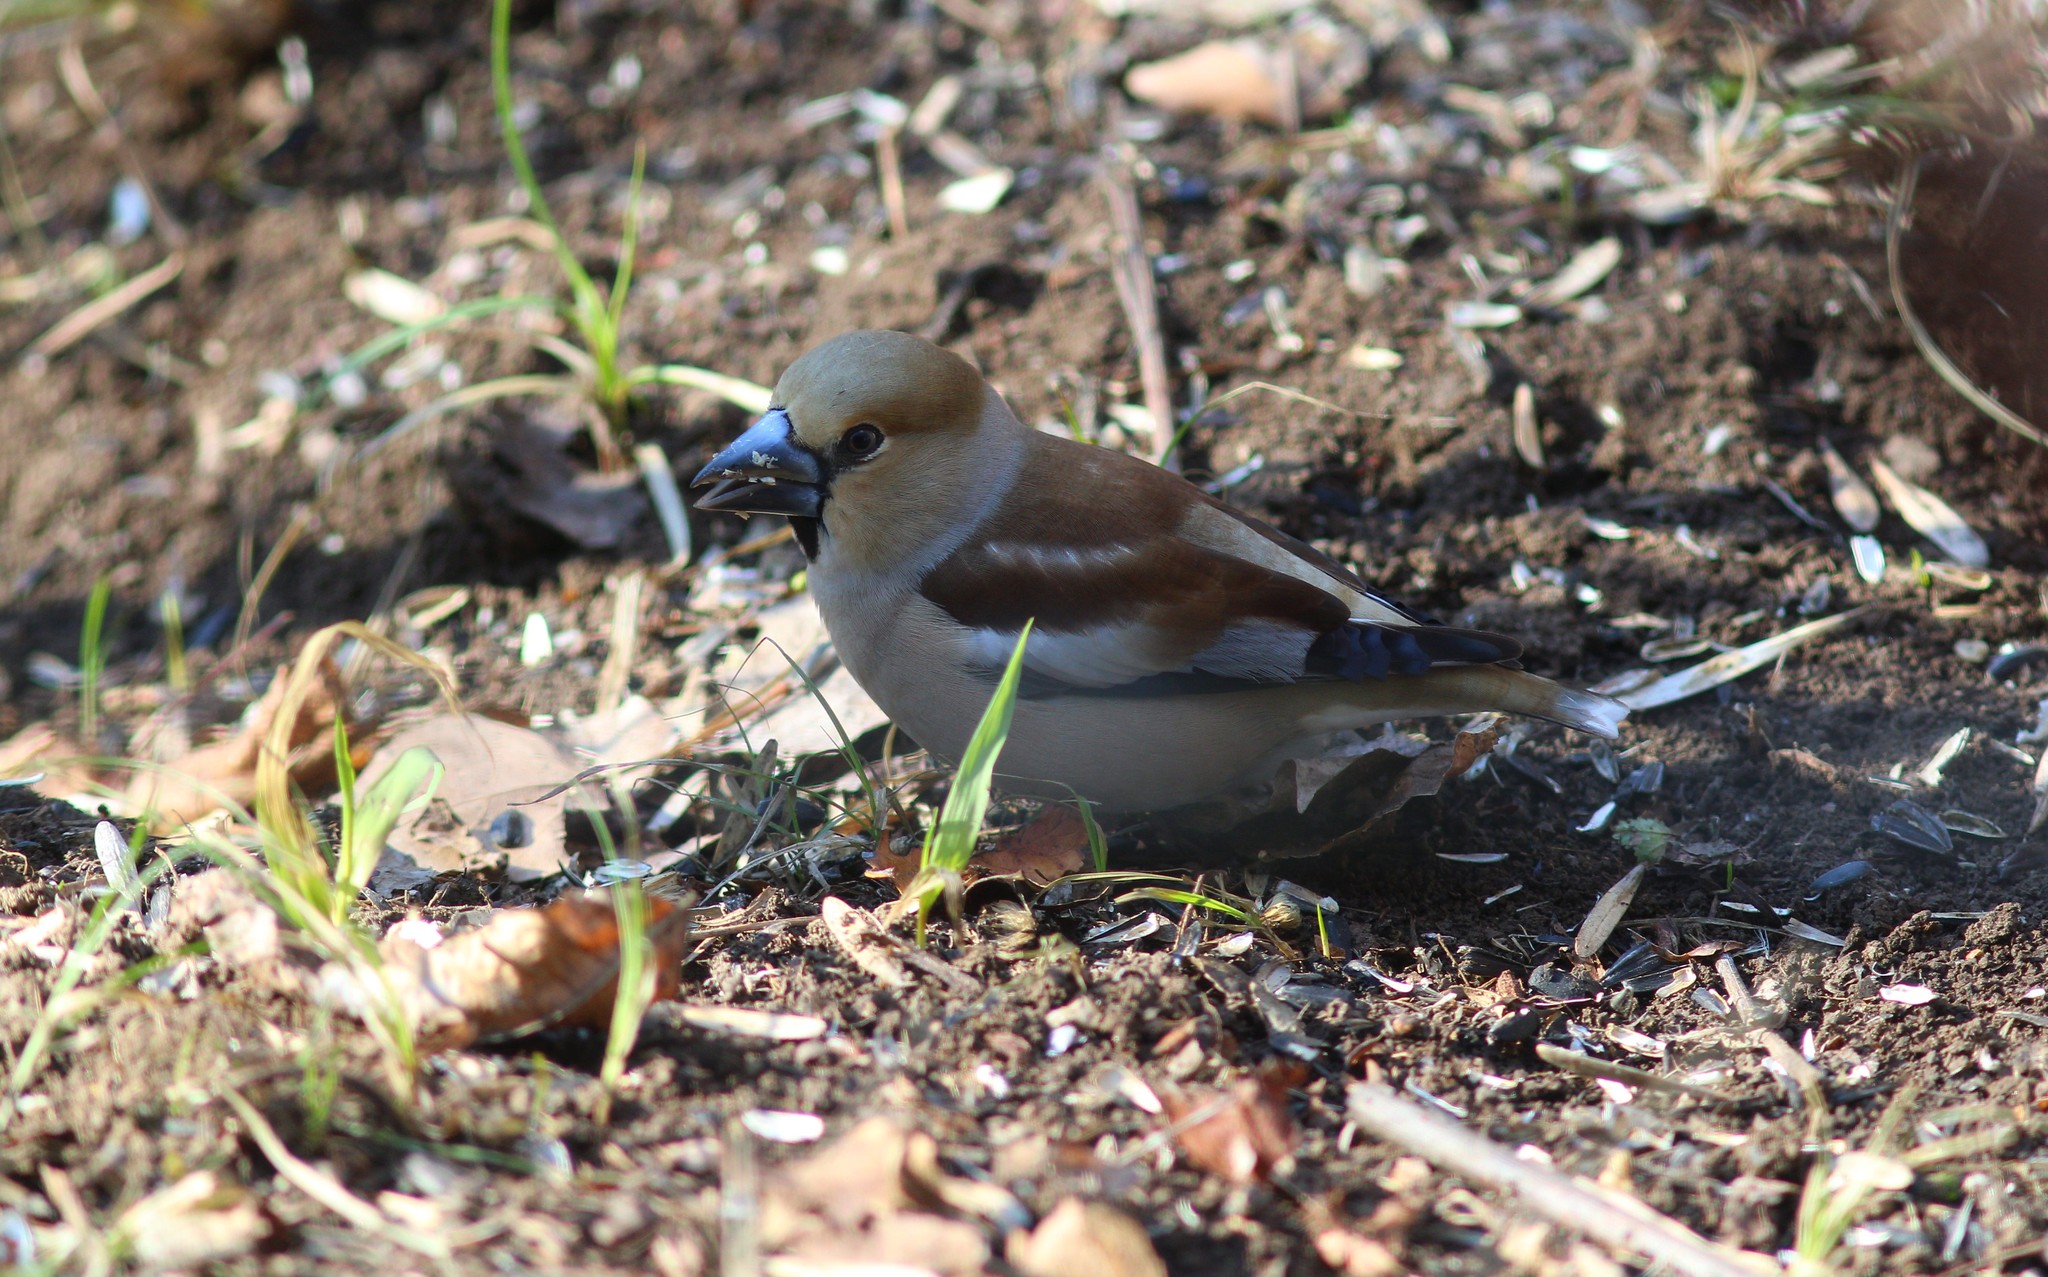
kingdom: Animalia
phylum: Chordata
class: Aves
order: Passeriformes
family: Fringillidae
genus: Coccothraustes
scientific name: Coccothraustes coccothraustes
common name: Hawfinch
